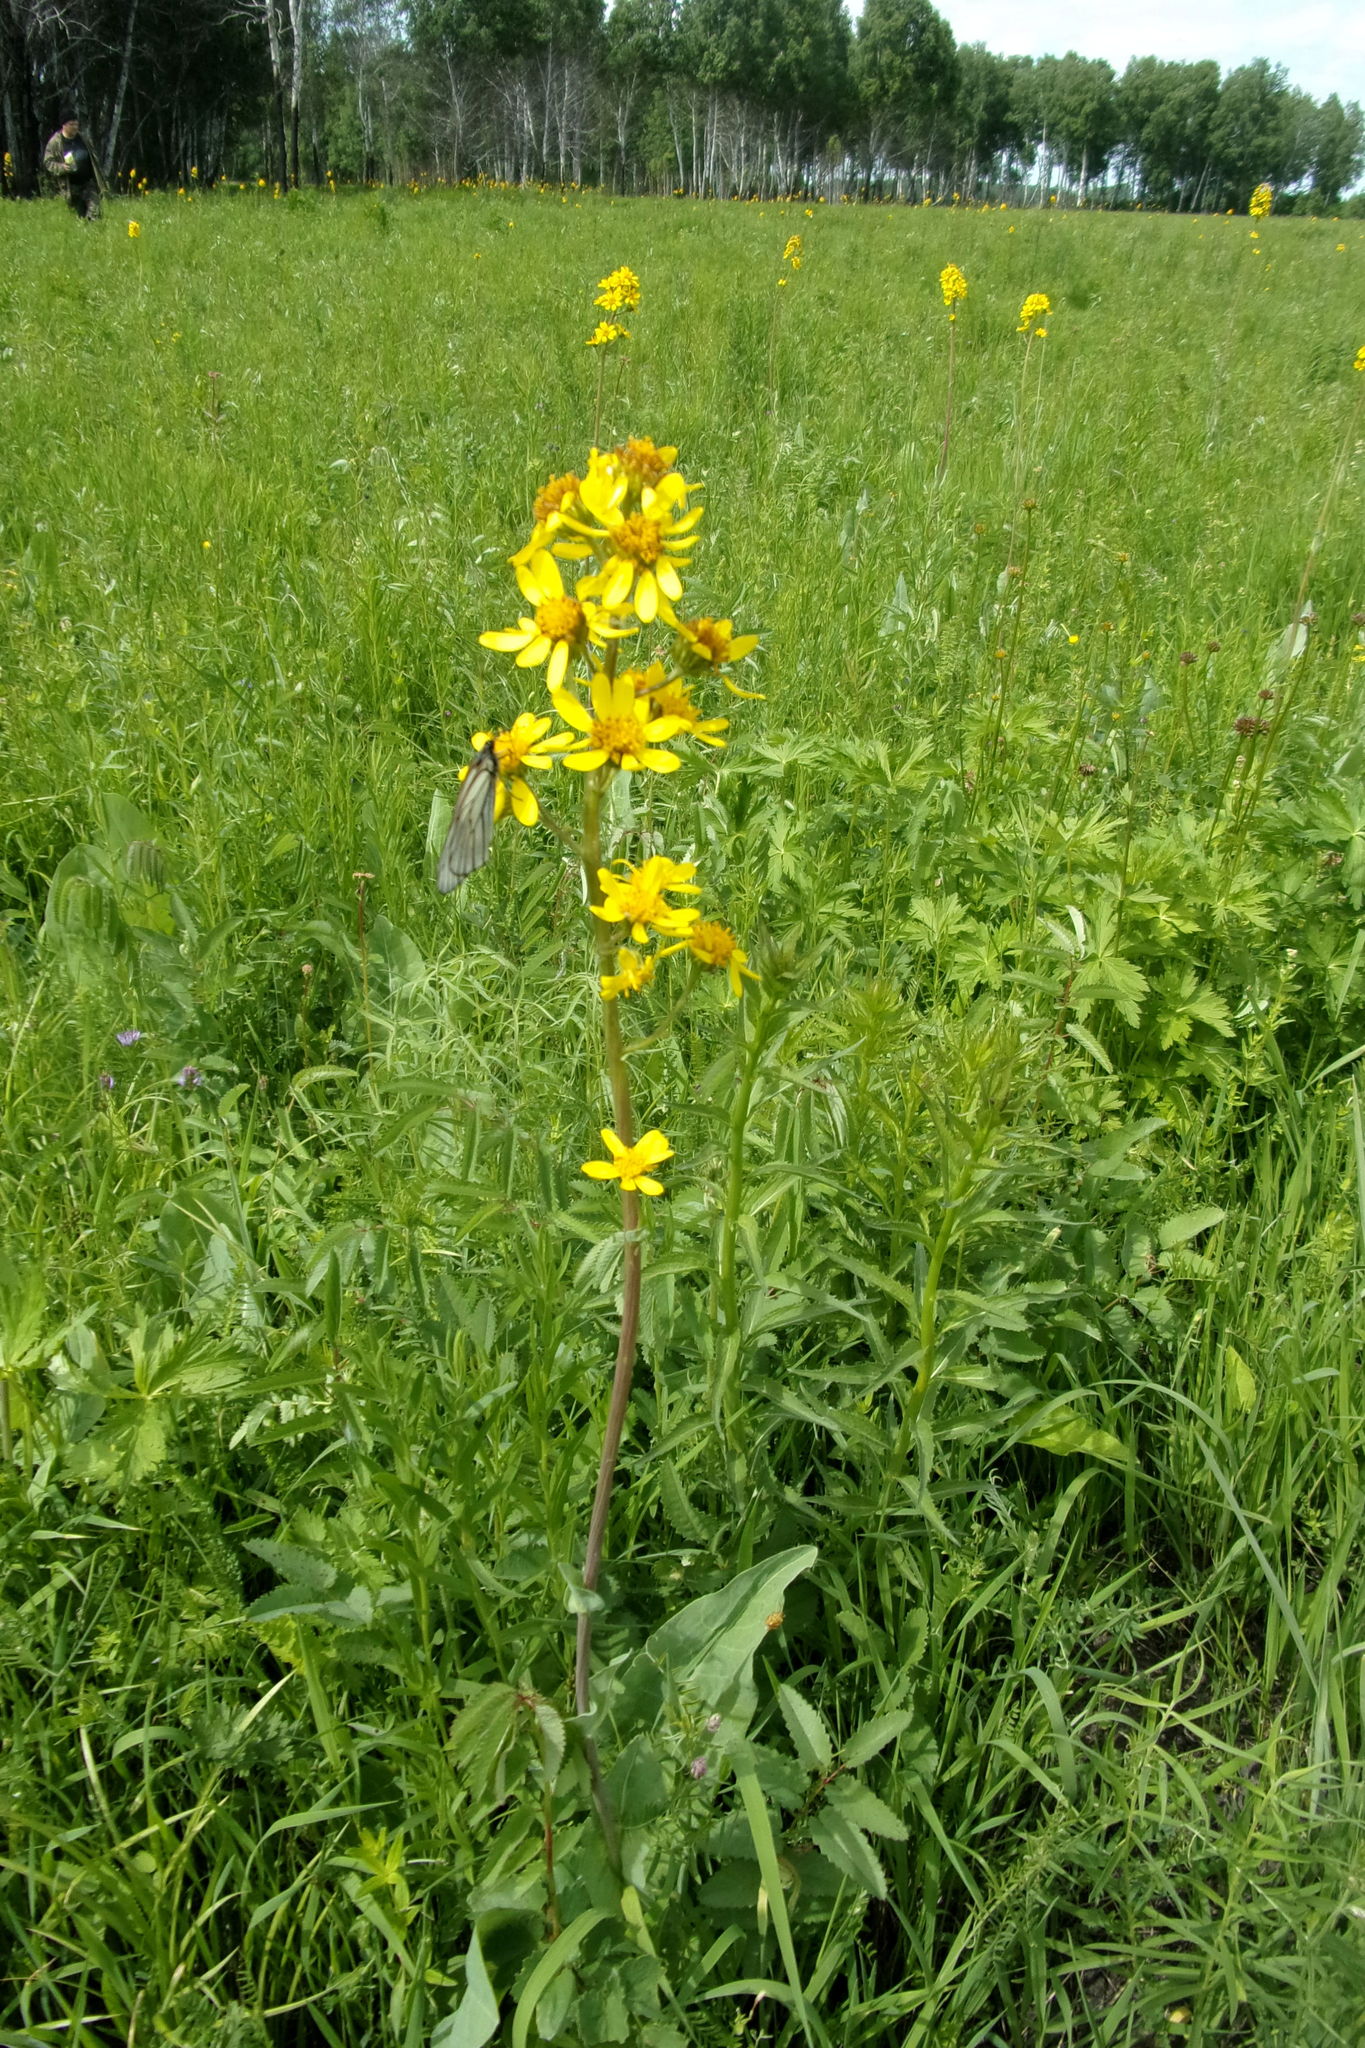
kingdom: Plantae
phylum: Tracheophyta
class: Magnoliopsida
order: Asterales
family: Asteraceae
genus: Ligularia
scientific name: Ligularia glauca
